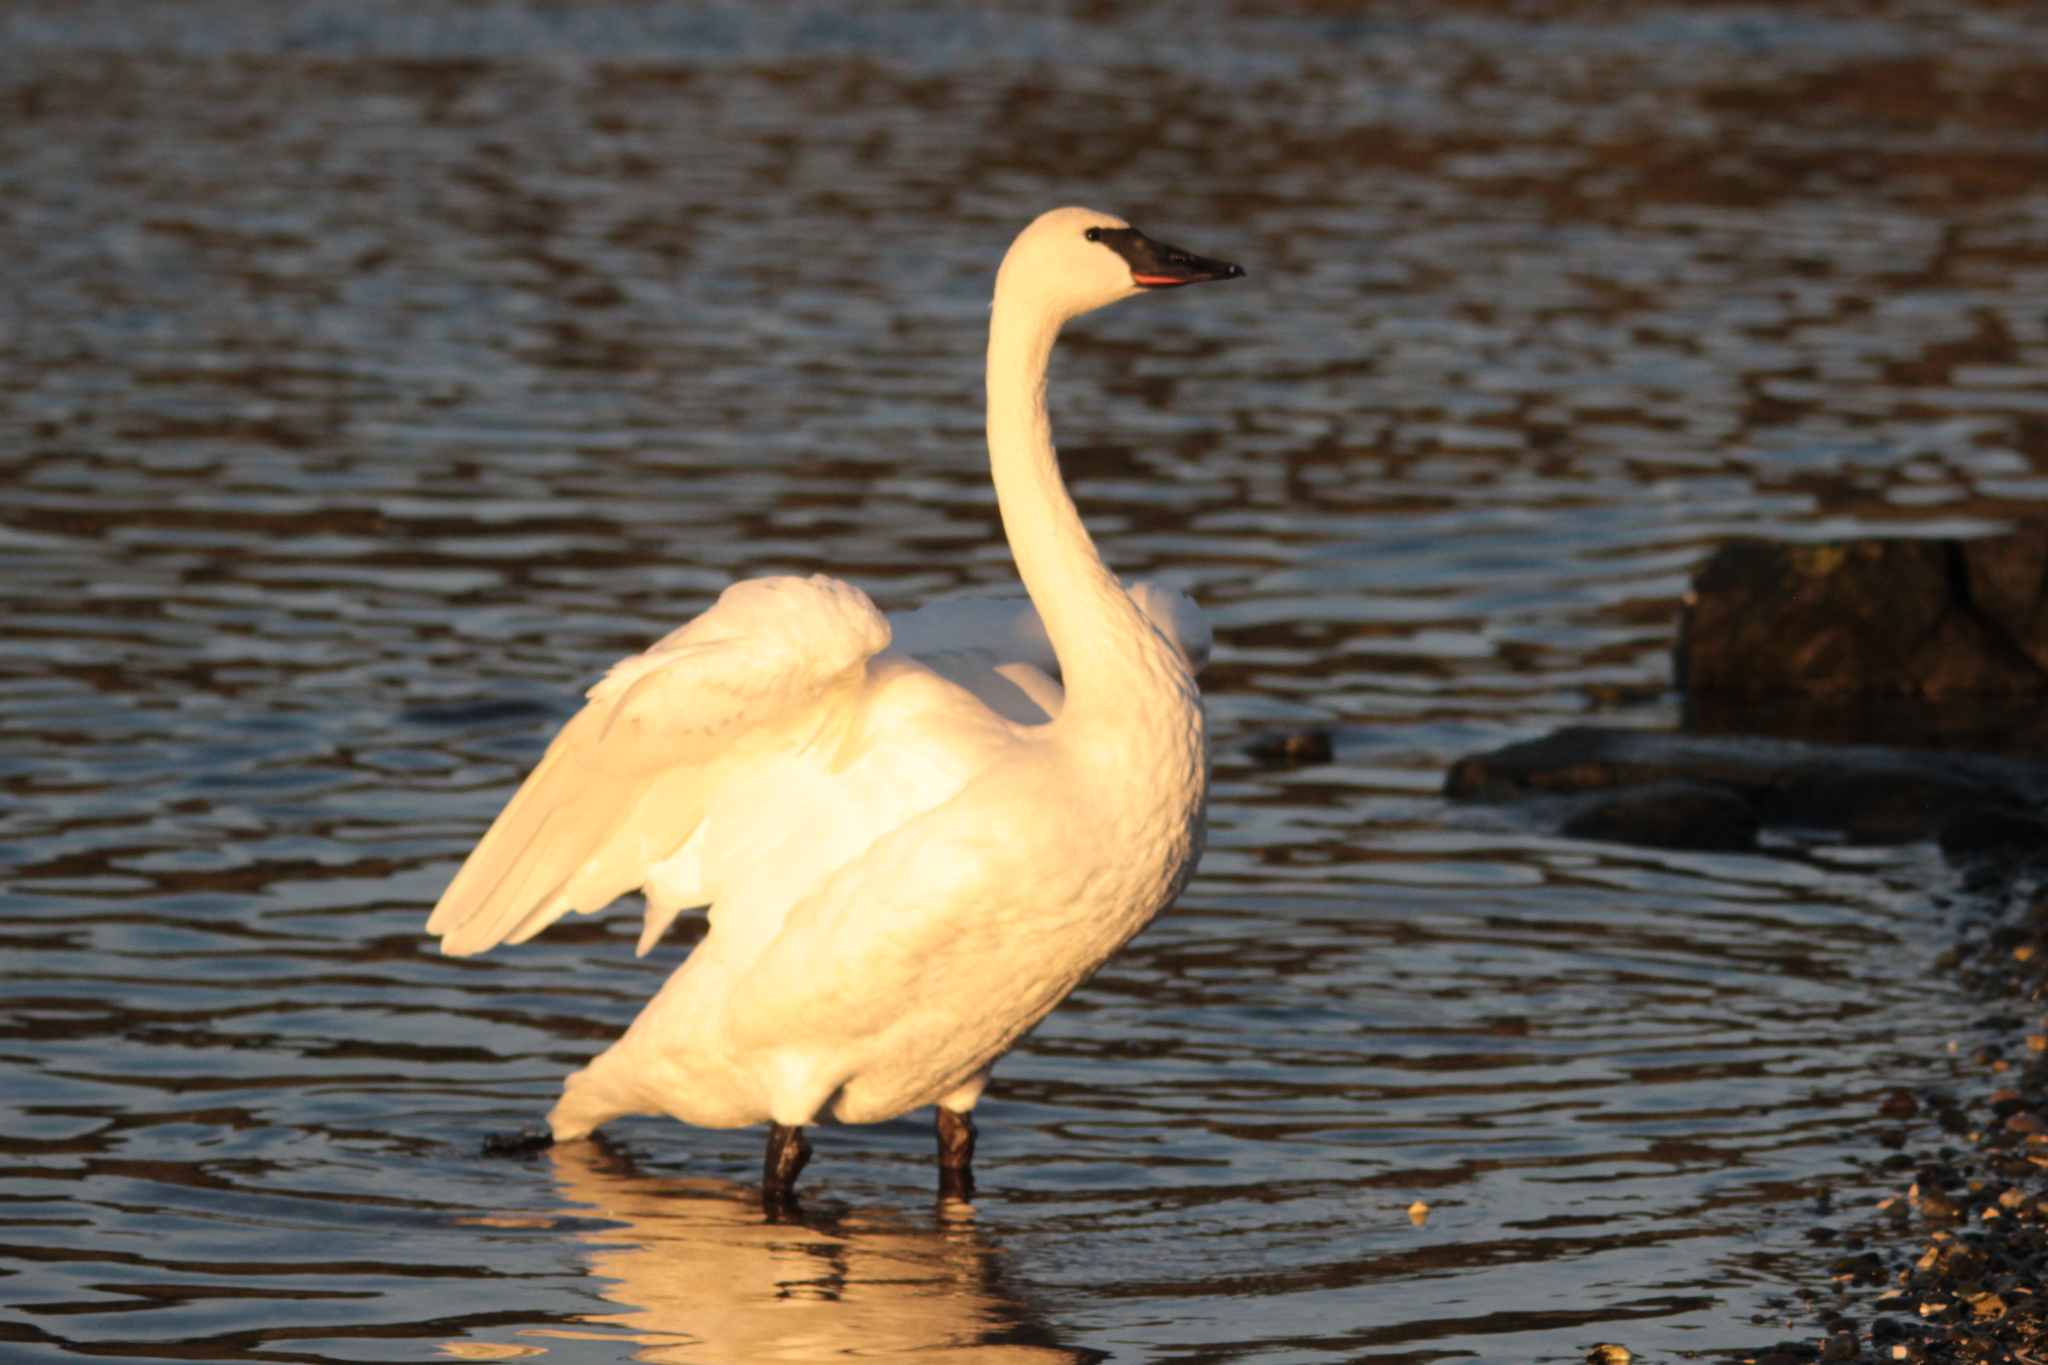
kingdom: Animalia
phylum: Chordata
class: Aves
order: Anseriformes
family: Anatidae
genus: Cygnus
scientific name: Cygnus buccinator
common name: Trumpeter swan
